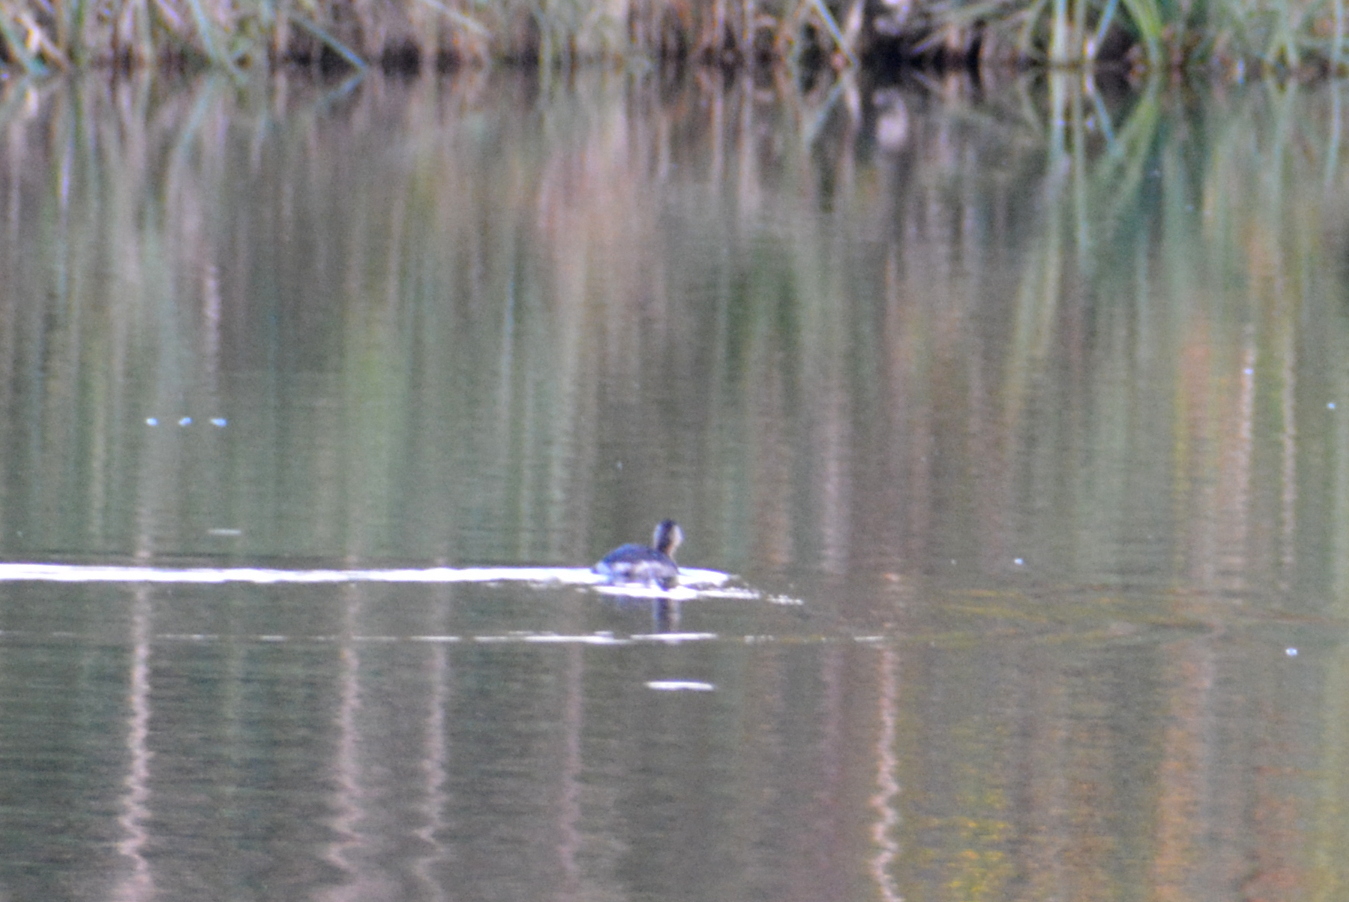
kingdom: Animalia
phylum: Chordata
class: Aves
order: Podicipediformes
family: Podicipedidae
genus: Tachybaptus
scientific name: Tachybaptus ruficollis
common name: Little grebe
